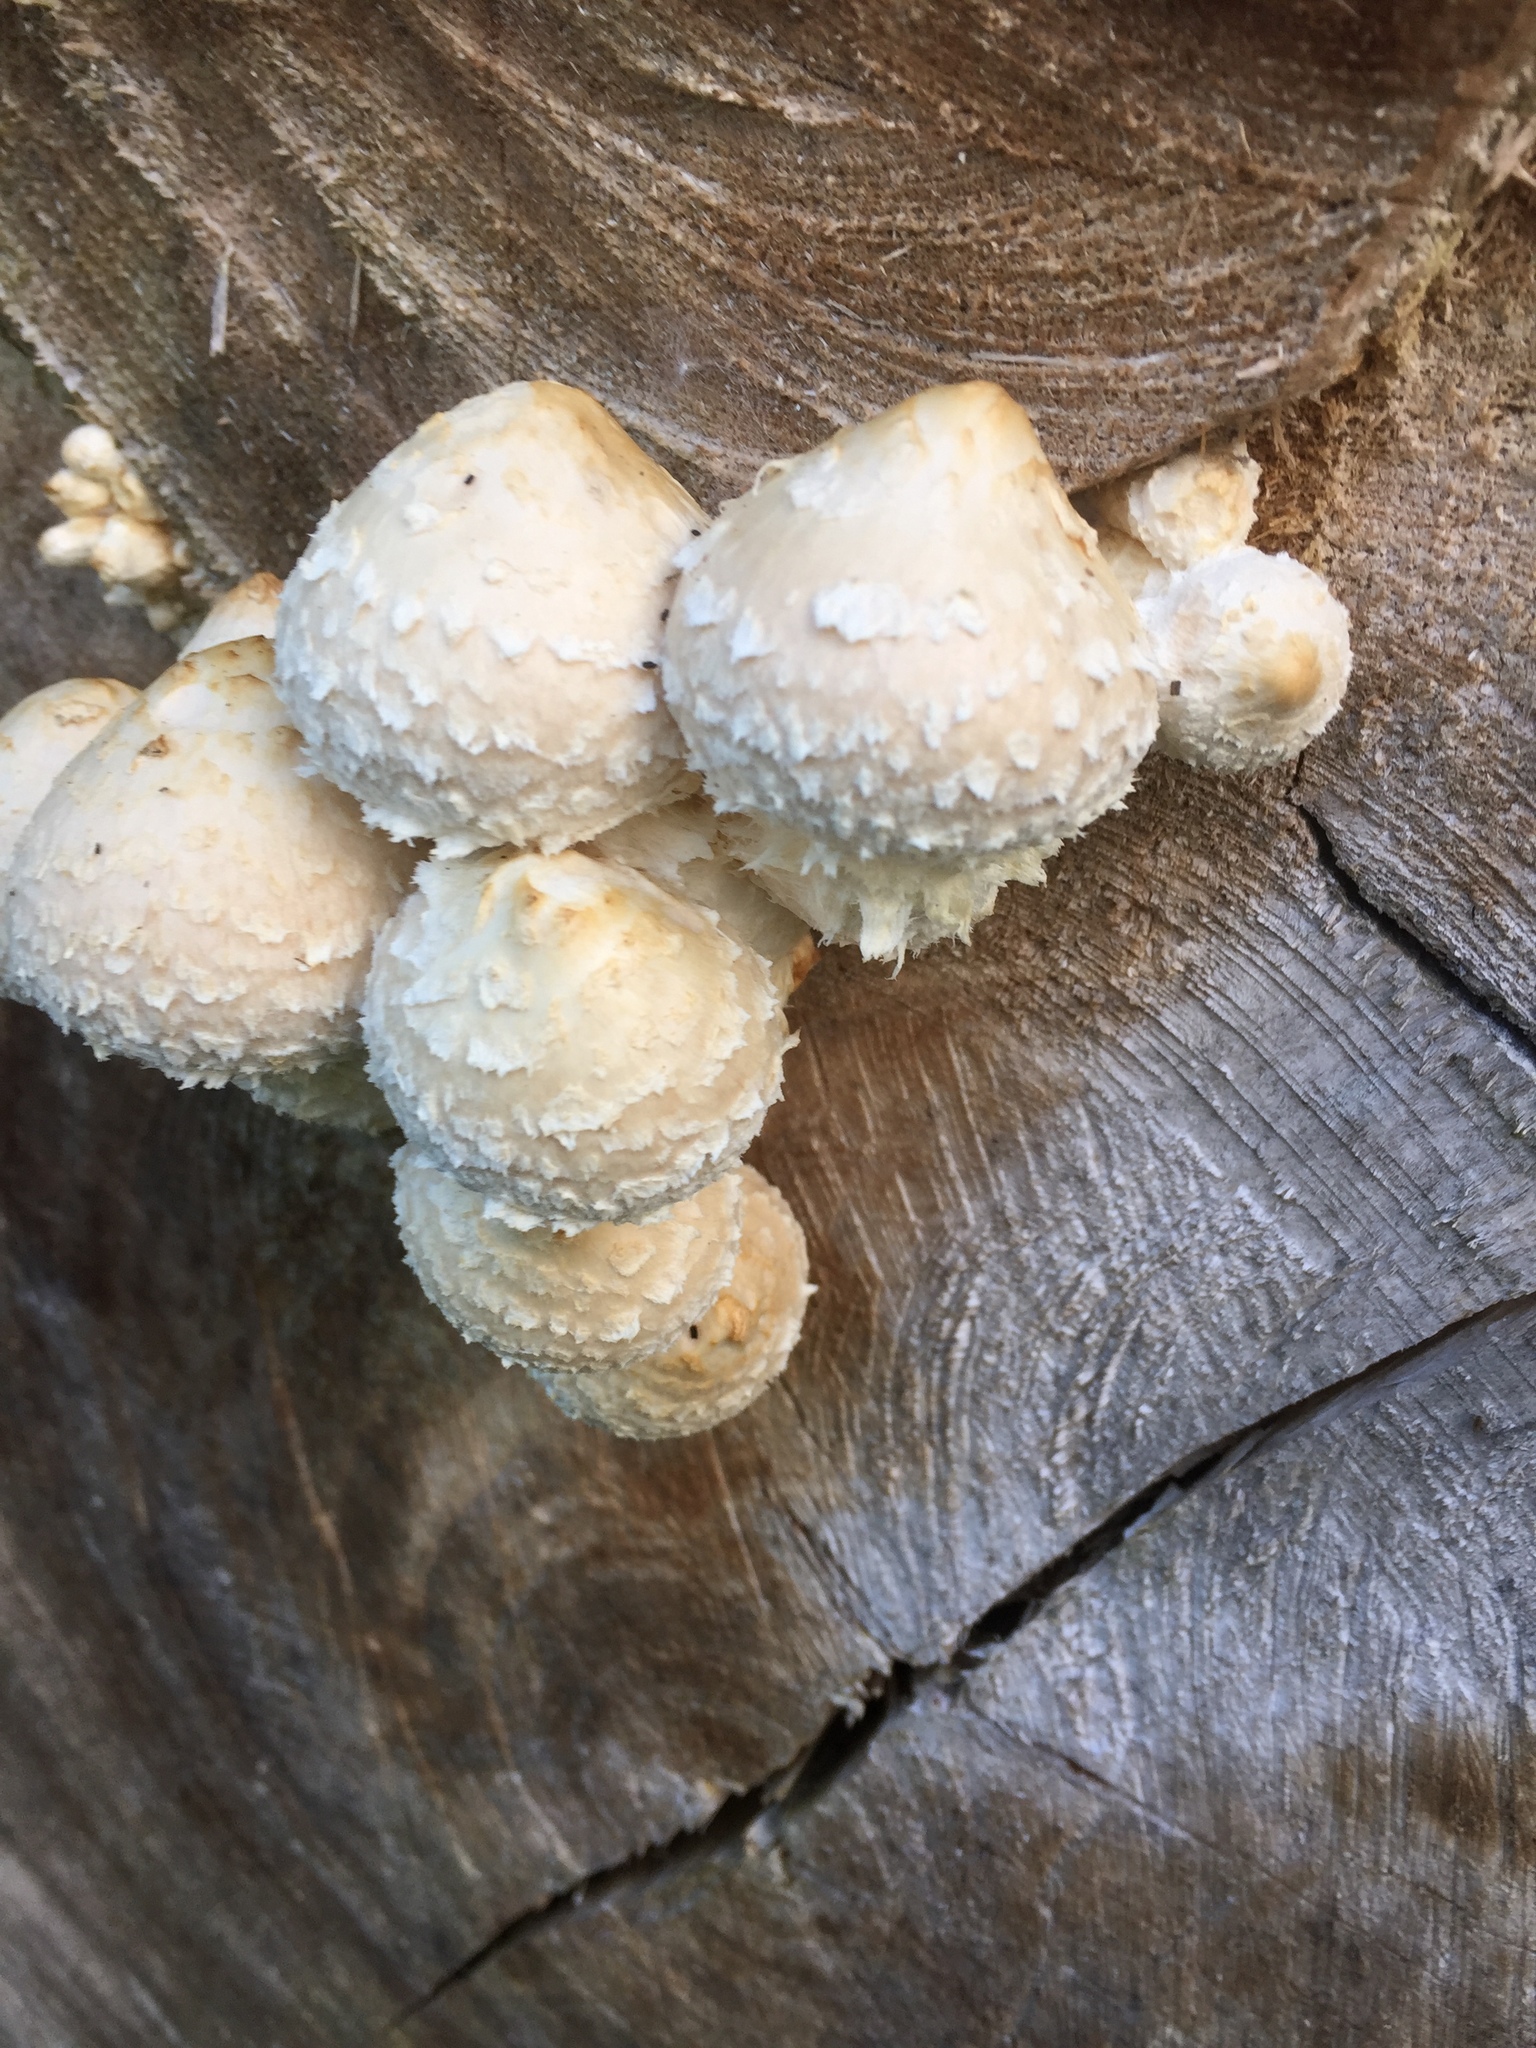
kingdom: Fungi
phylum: Basidiomycota
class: Agaricomycetes
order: Agaricales
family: Strophariaceae
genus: Pholiota
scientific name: Pholiota populnea
